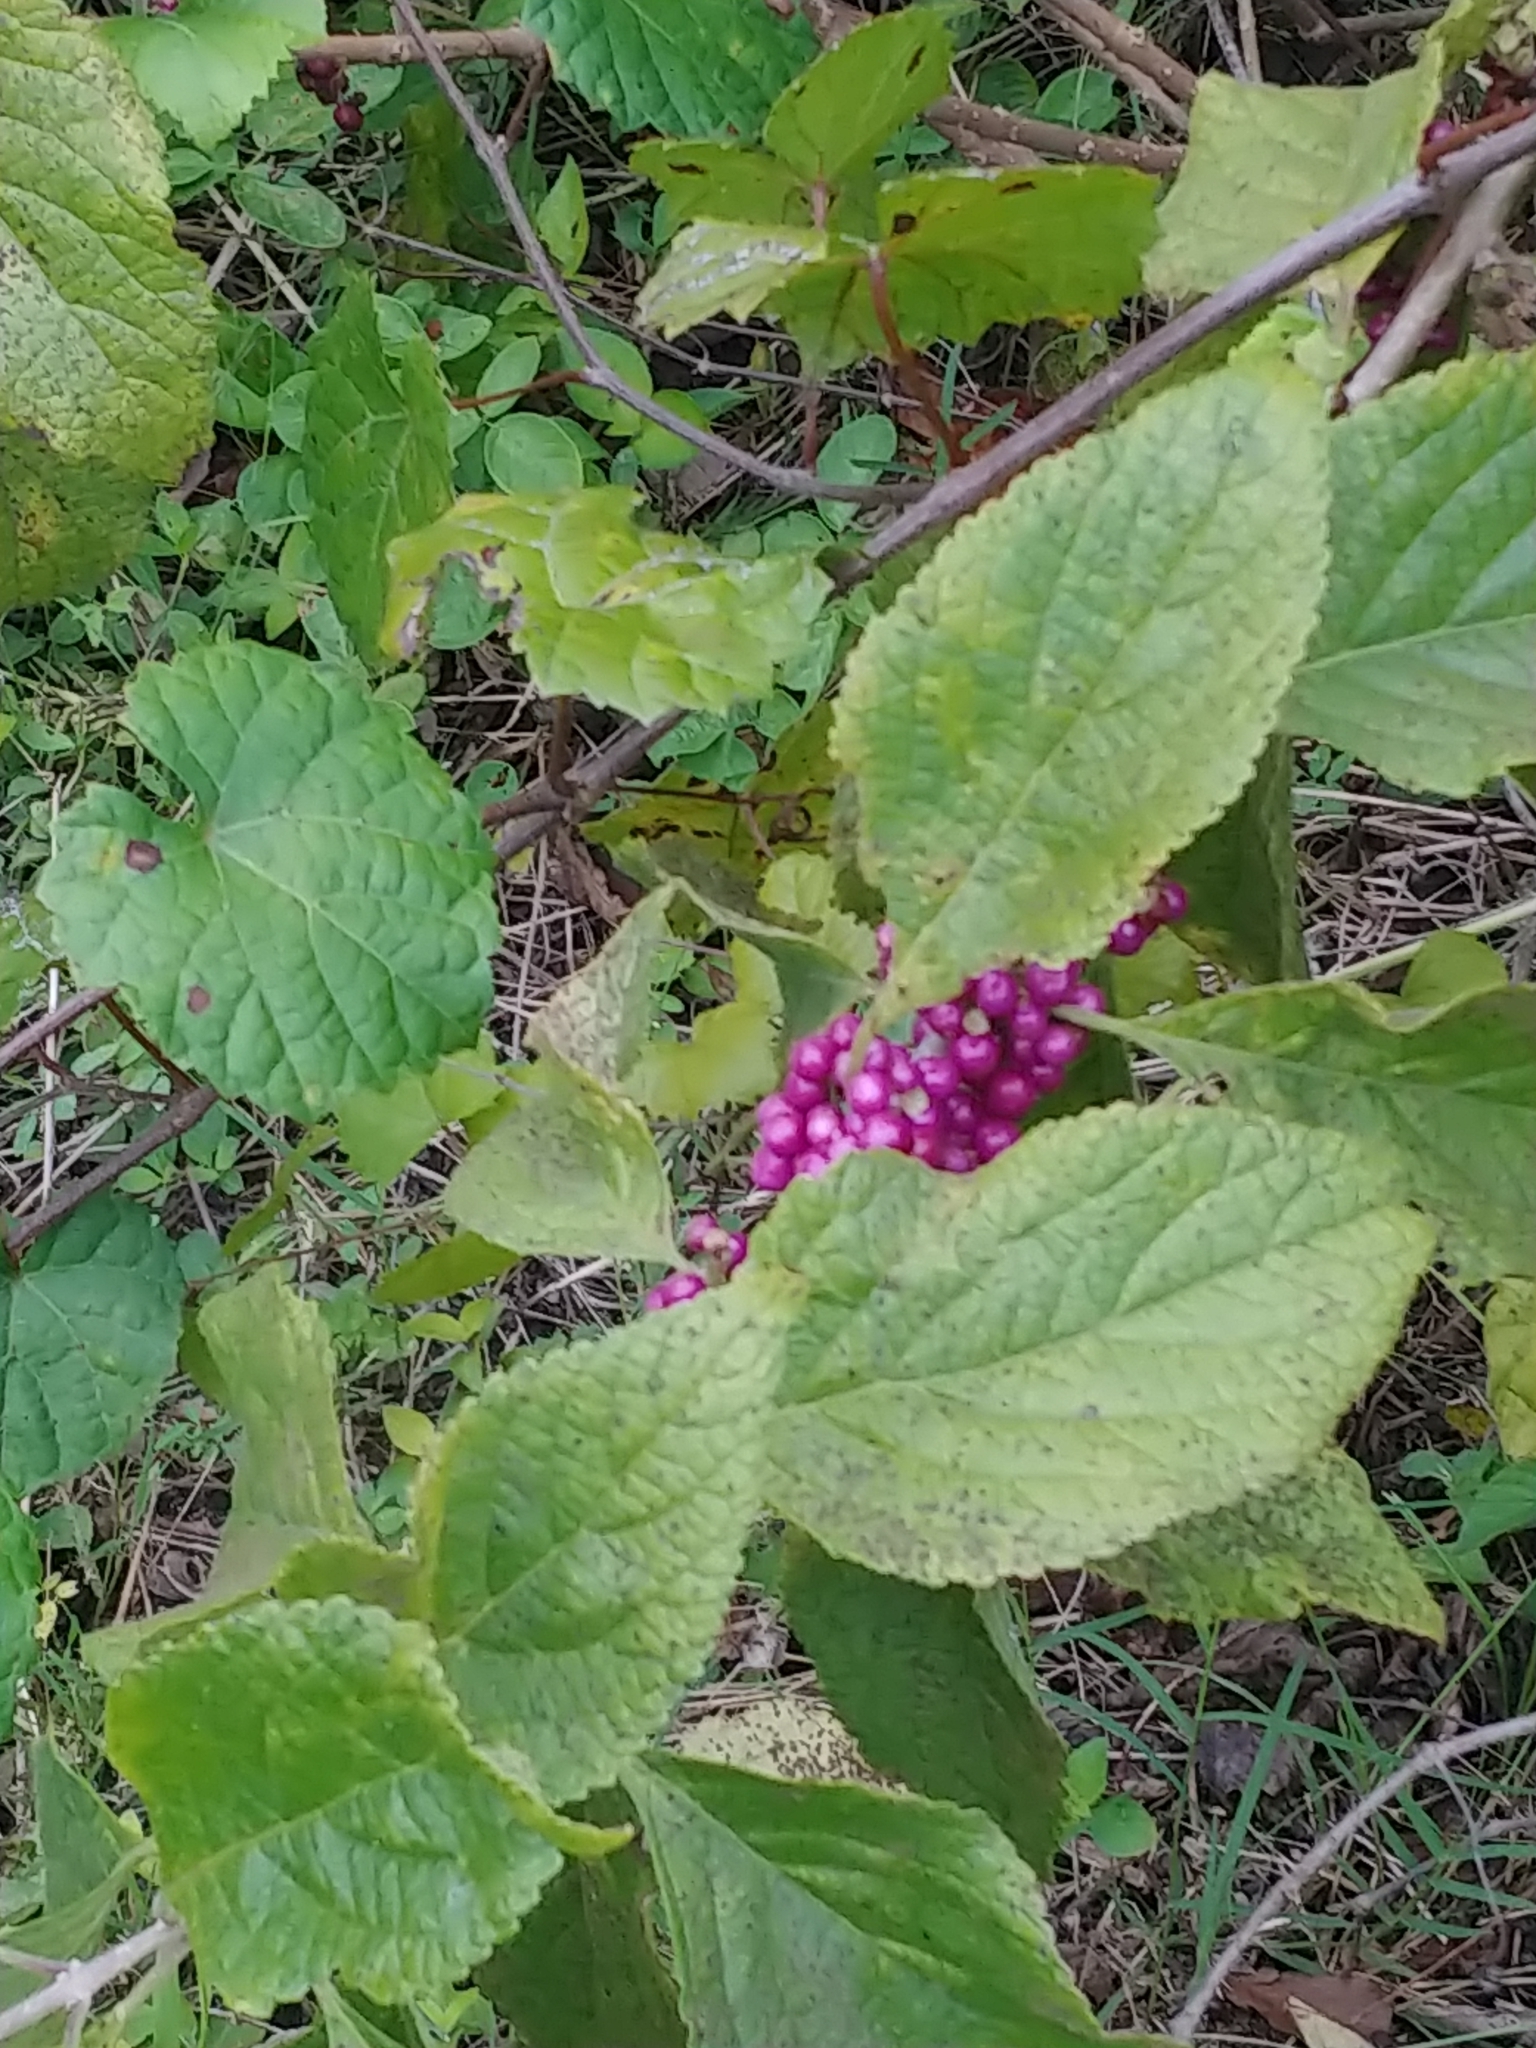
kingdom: Plantae
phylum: Tracheophyta
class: Magnoliopsida
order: Lamiales
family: Lamiaceae
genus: Callicarpa
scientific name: Callicarpa americana
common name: American beautyberry
